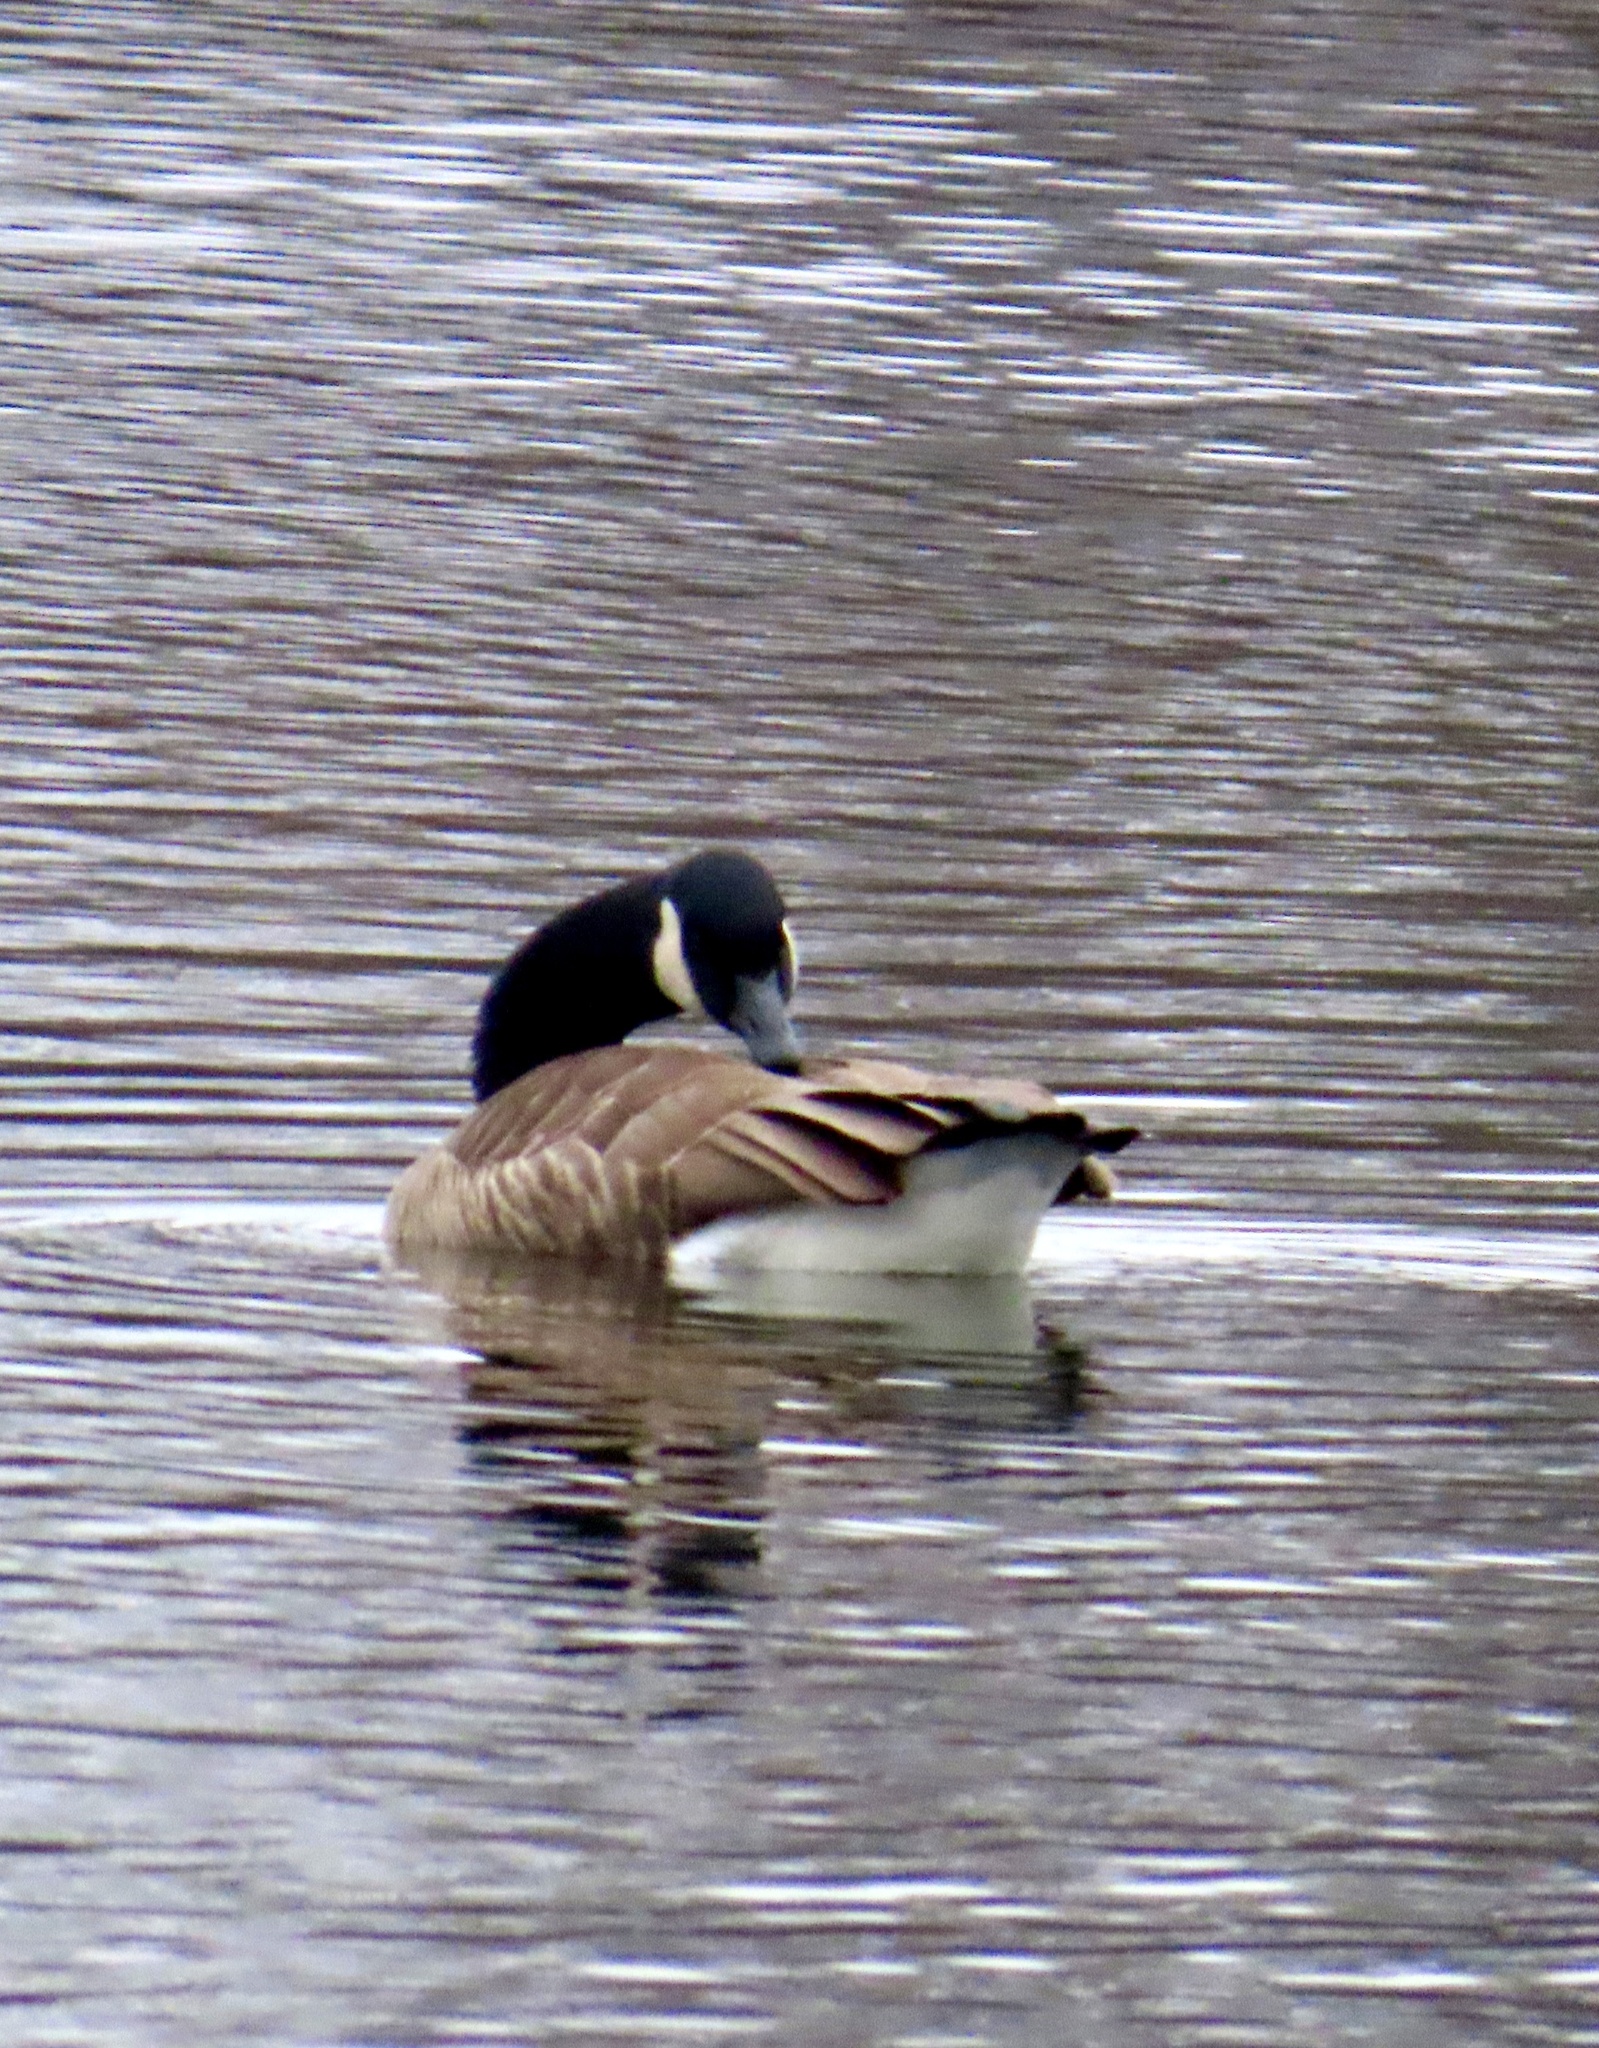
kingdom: Animalia
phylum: Chordata
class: Aves
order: Anseriformes
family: Anatidae
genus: Branta
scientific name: Branta canadensis
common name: Canada goose
